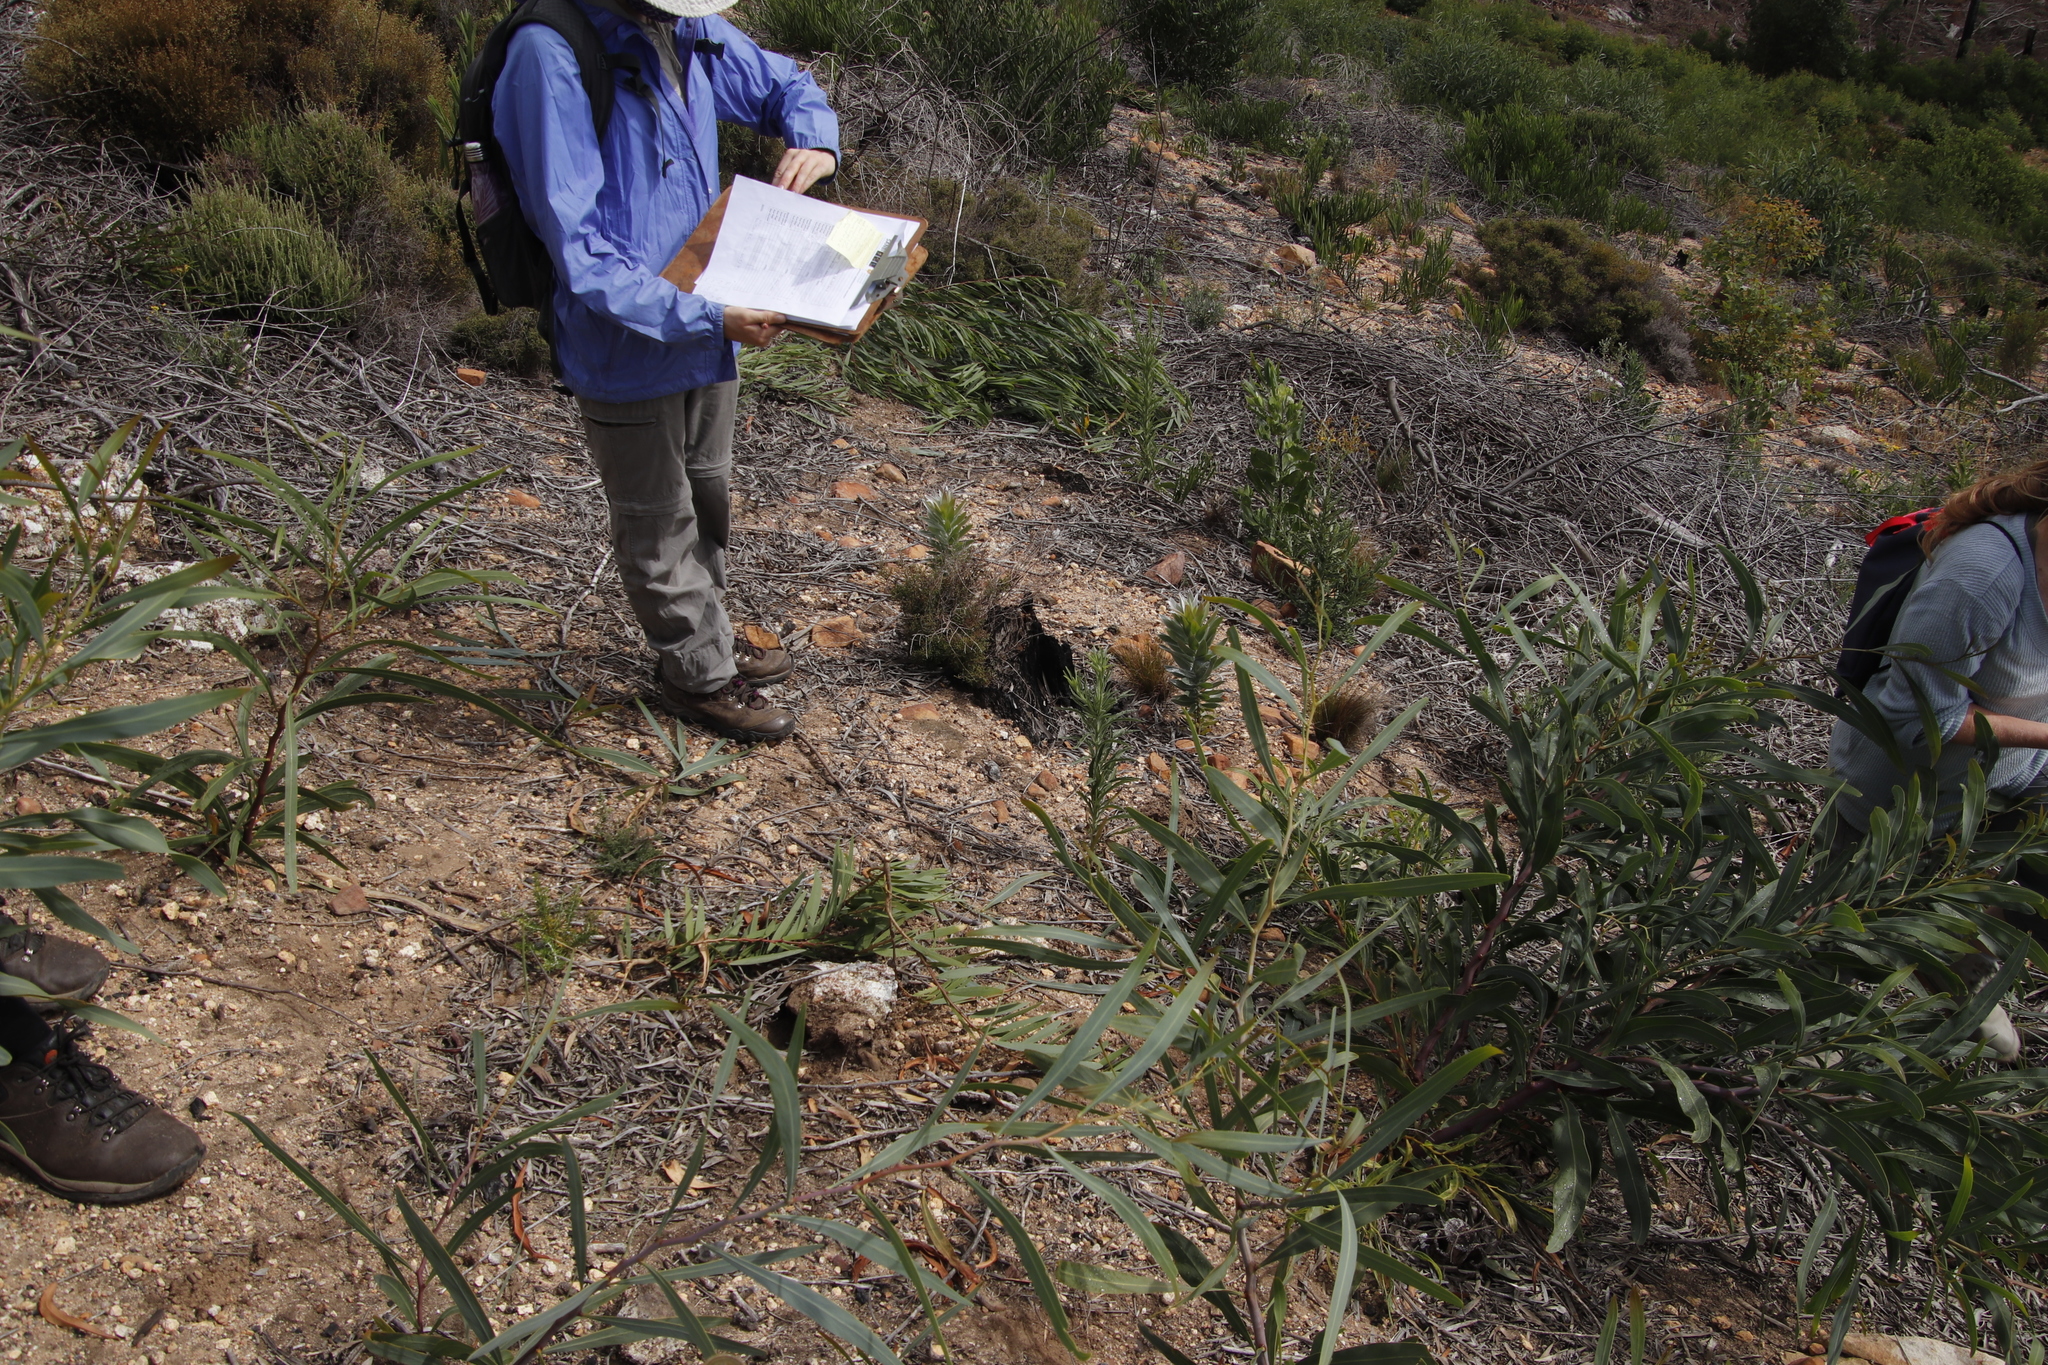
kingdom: Plantae
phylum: Tracheophyta
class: Magnoliopsida
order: Fabales
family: Fabaceae
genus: Acacia
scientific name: Acacia saligna
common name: Orange wattle
